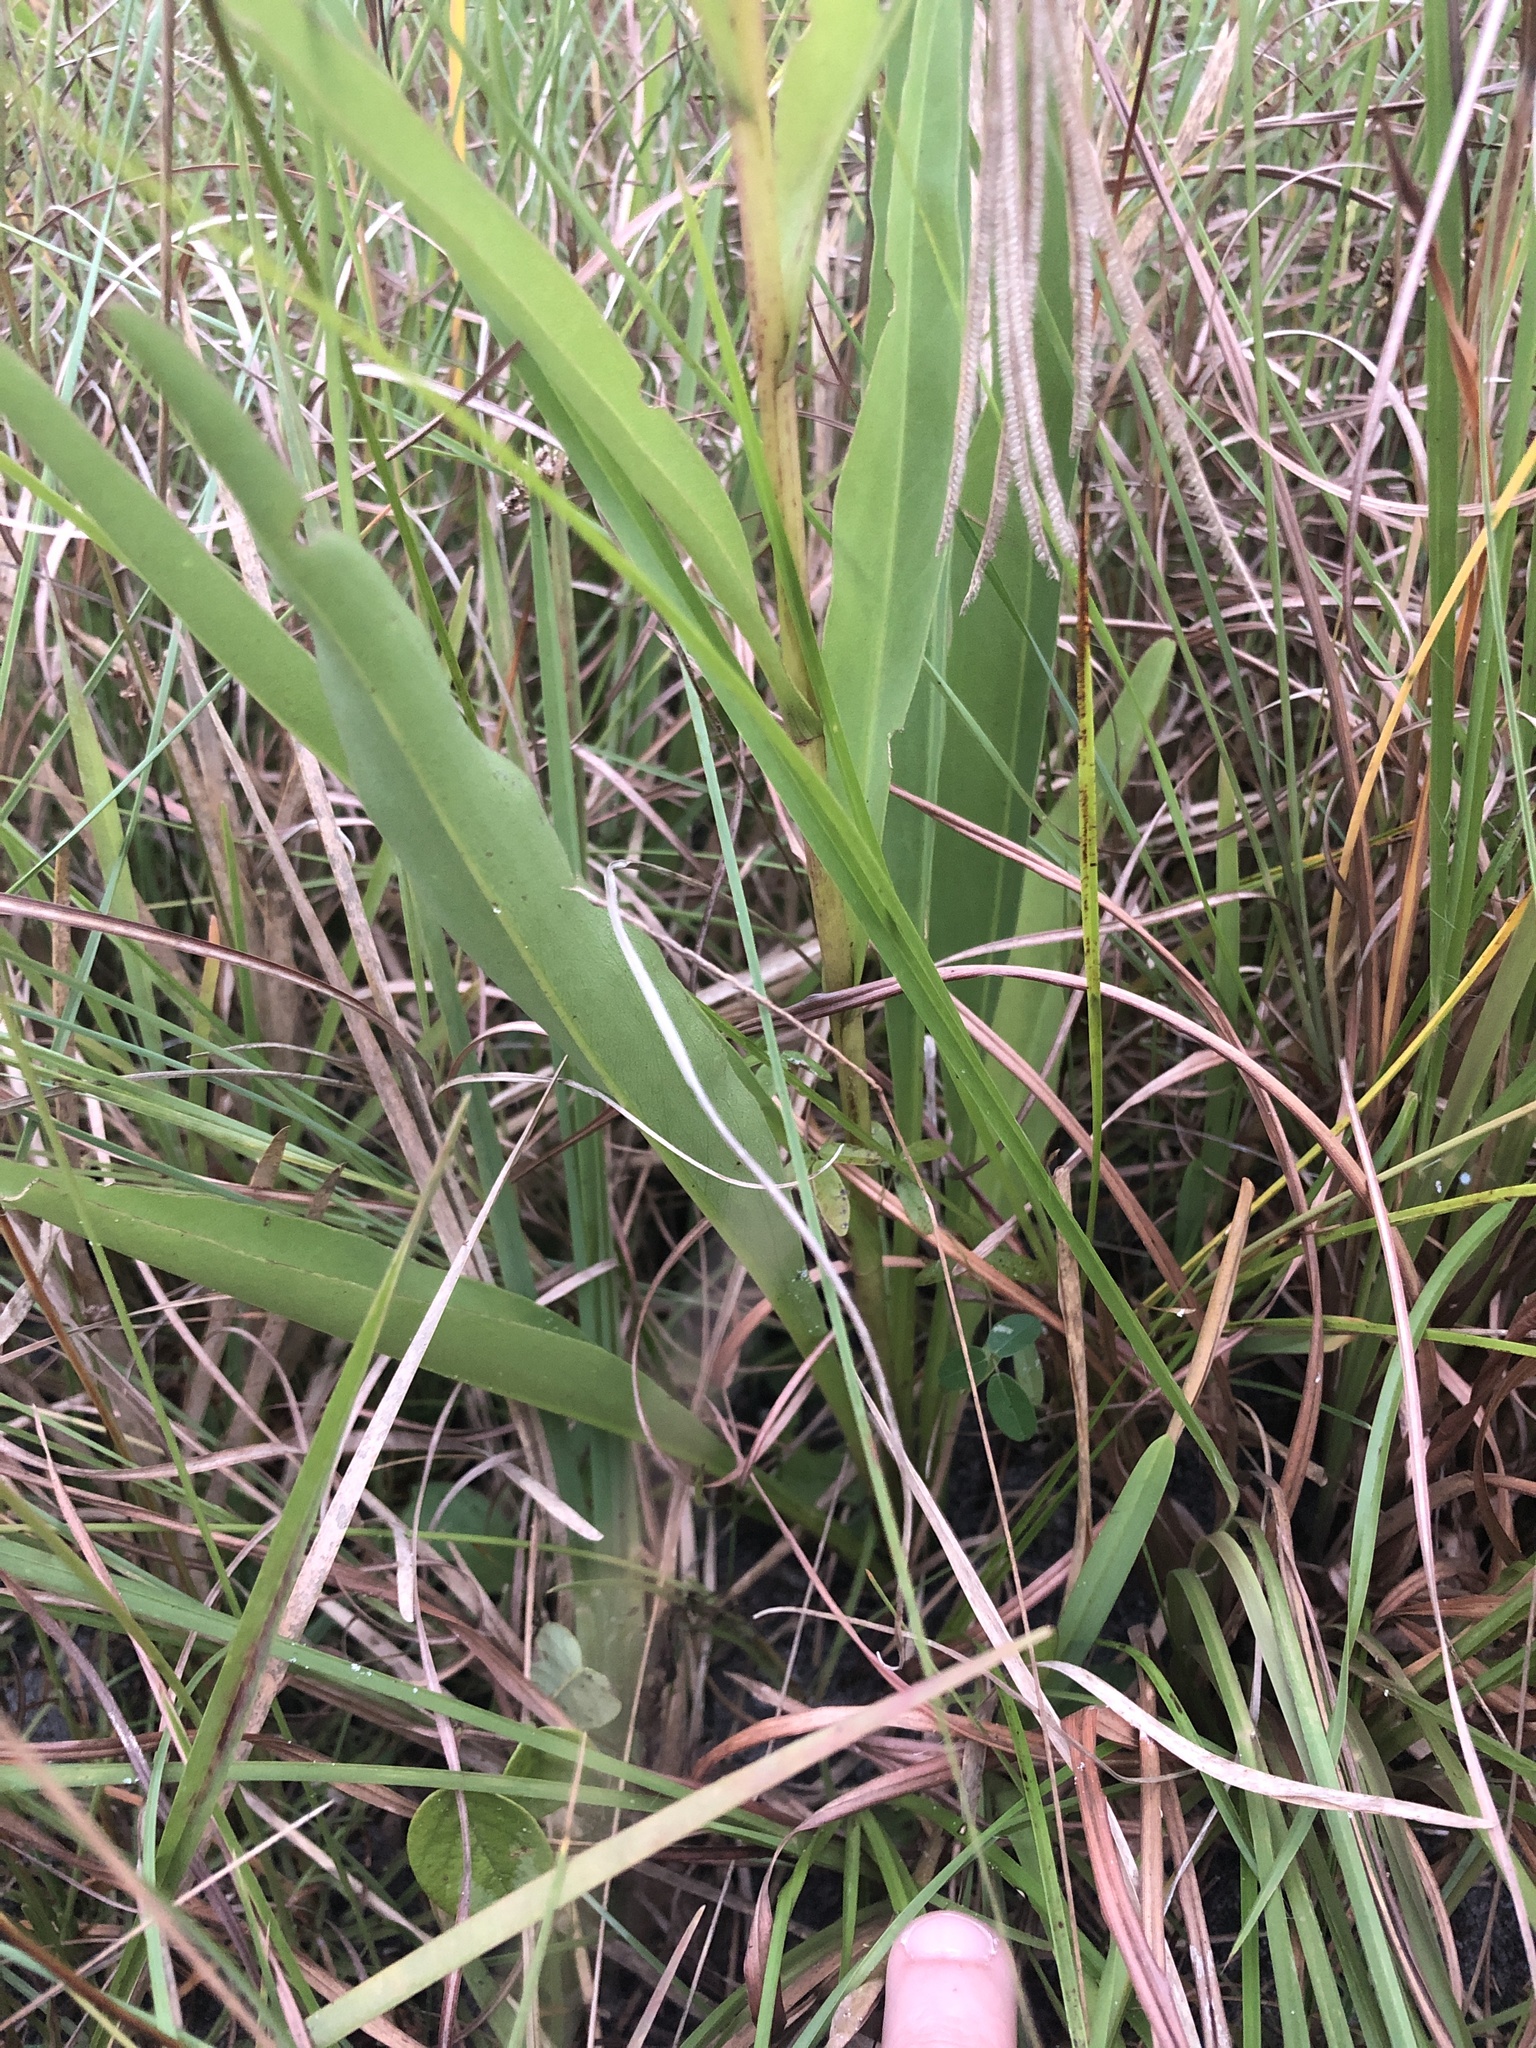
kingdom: Plantae
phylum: Tracheophyta
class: Magnoliopsida
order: Asterales
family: Asteraceae
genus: Solidago
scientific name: Solidago mexicana
